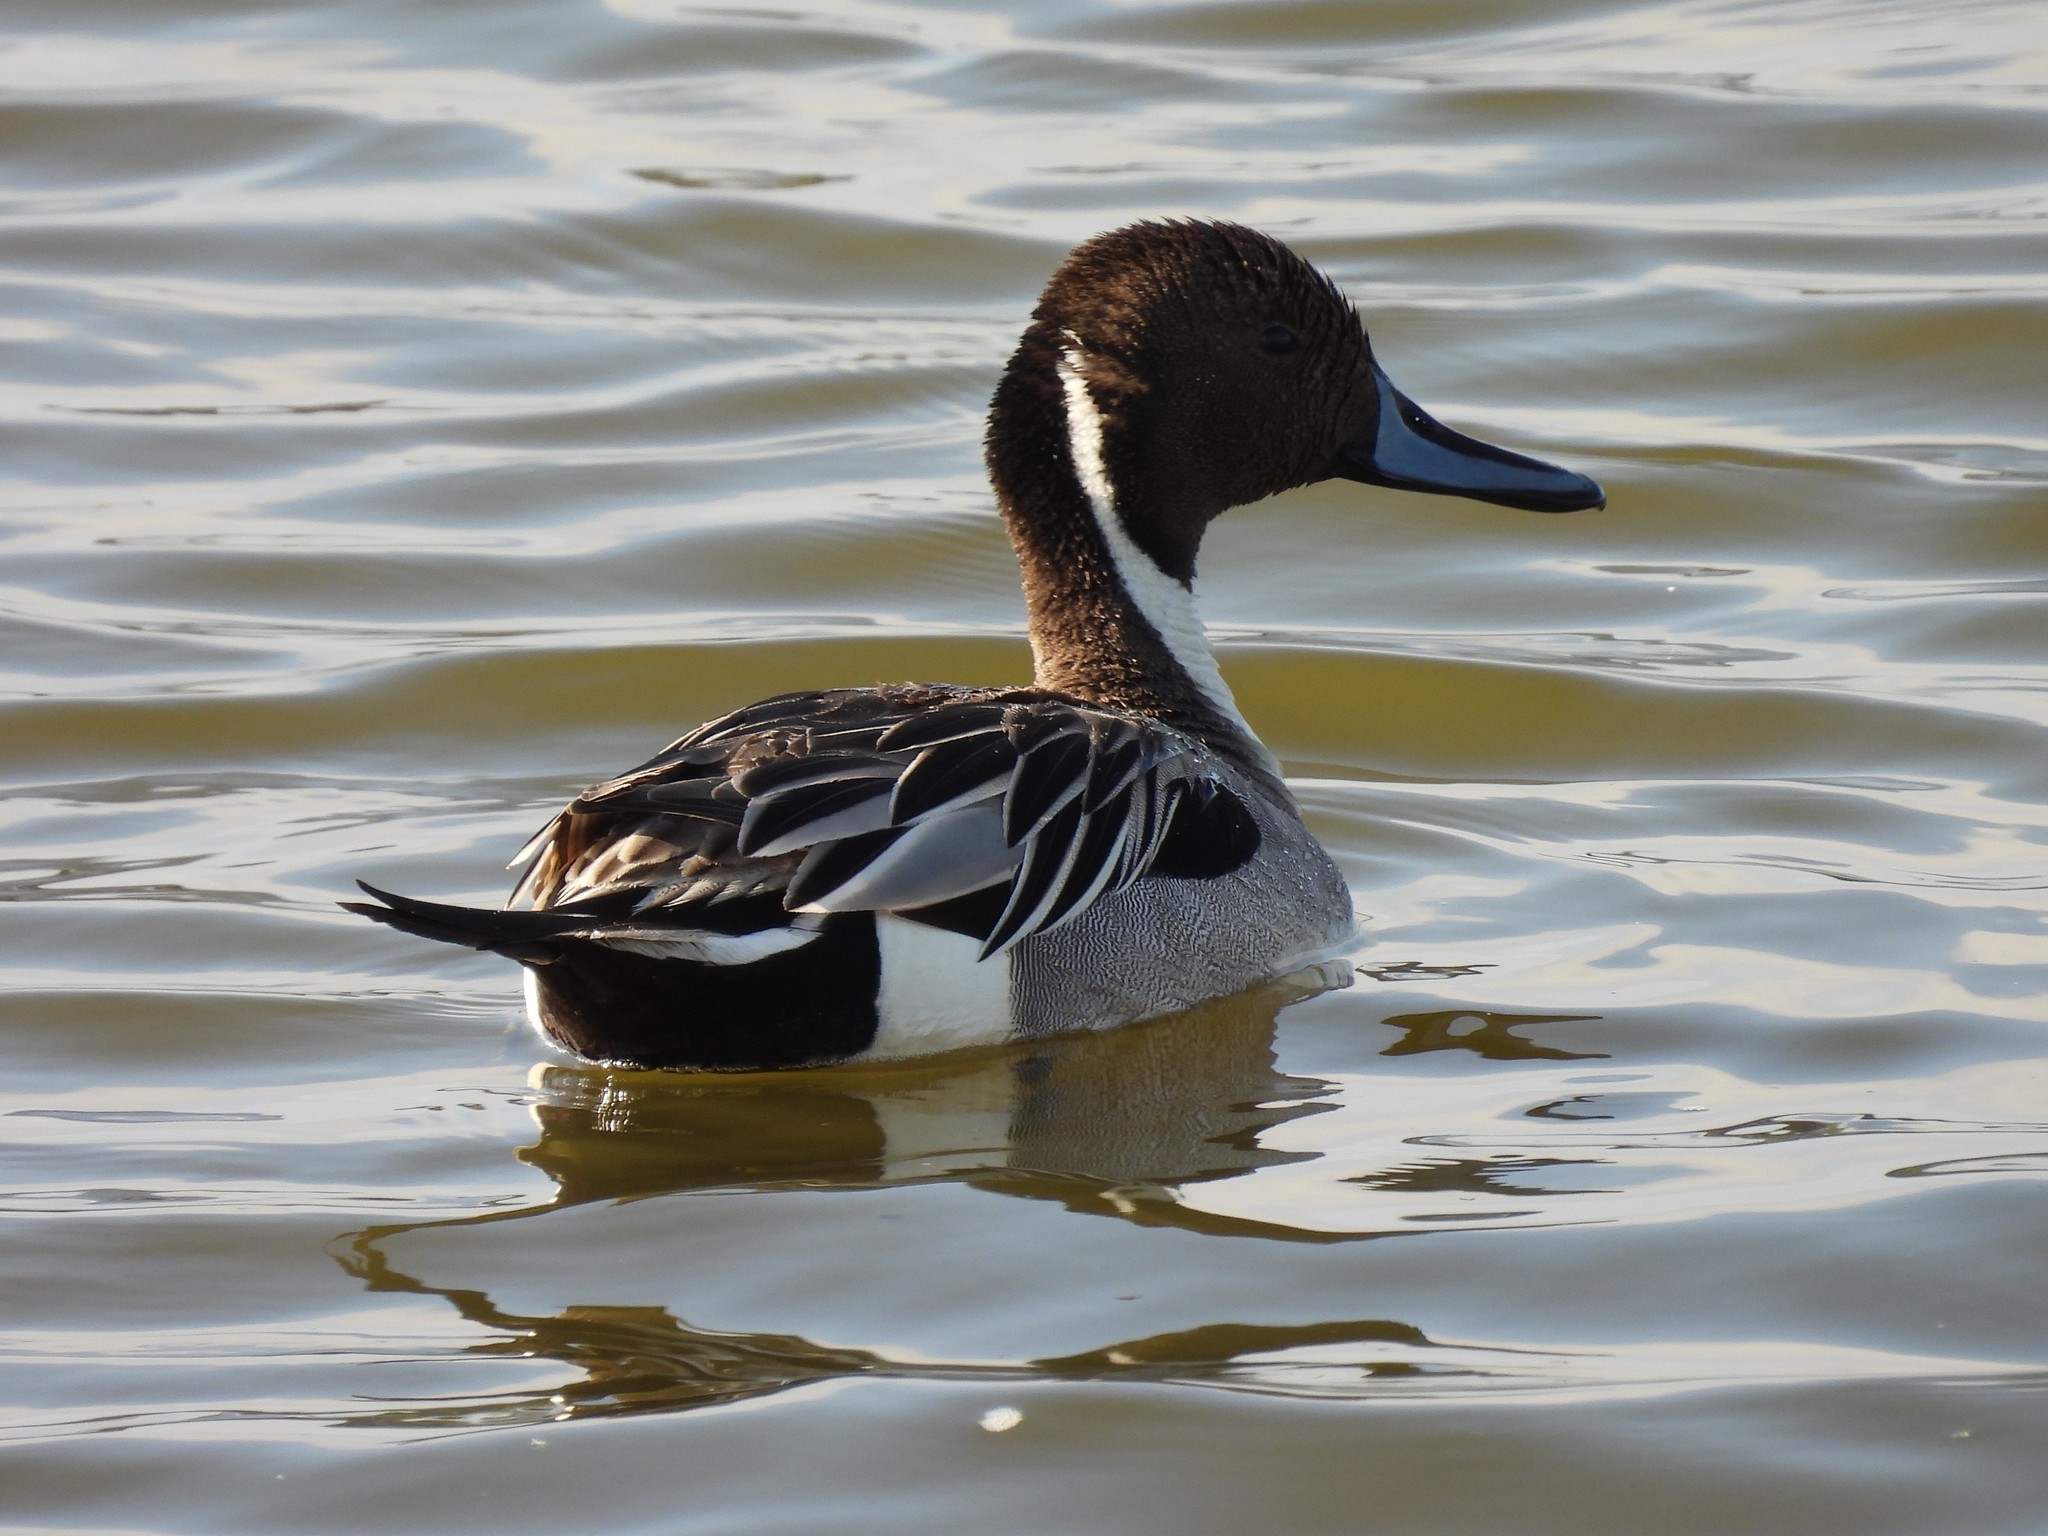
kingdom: Animalia
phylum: Chordata
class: Aves
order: Anseriformes
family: Anatidae
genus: Anas
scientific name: Anas acuta
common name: Northern pintail
